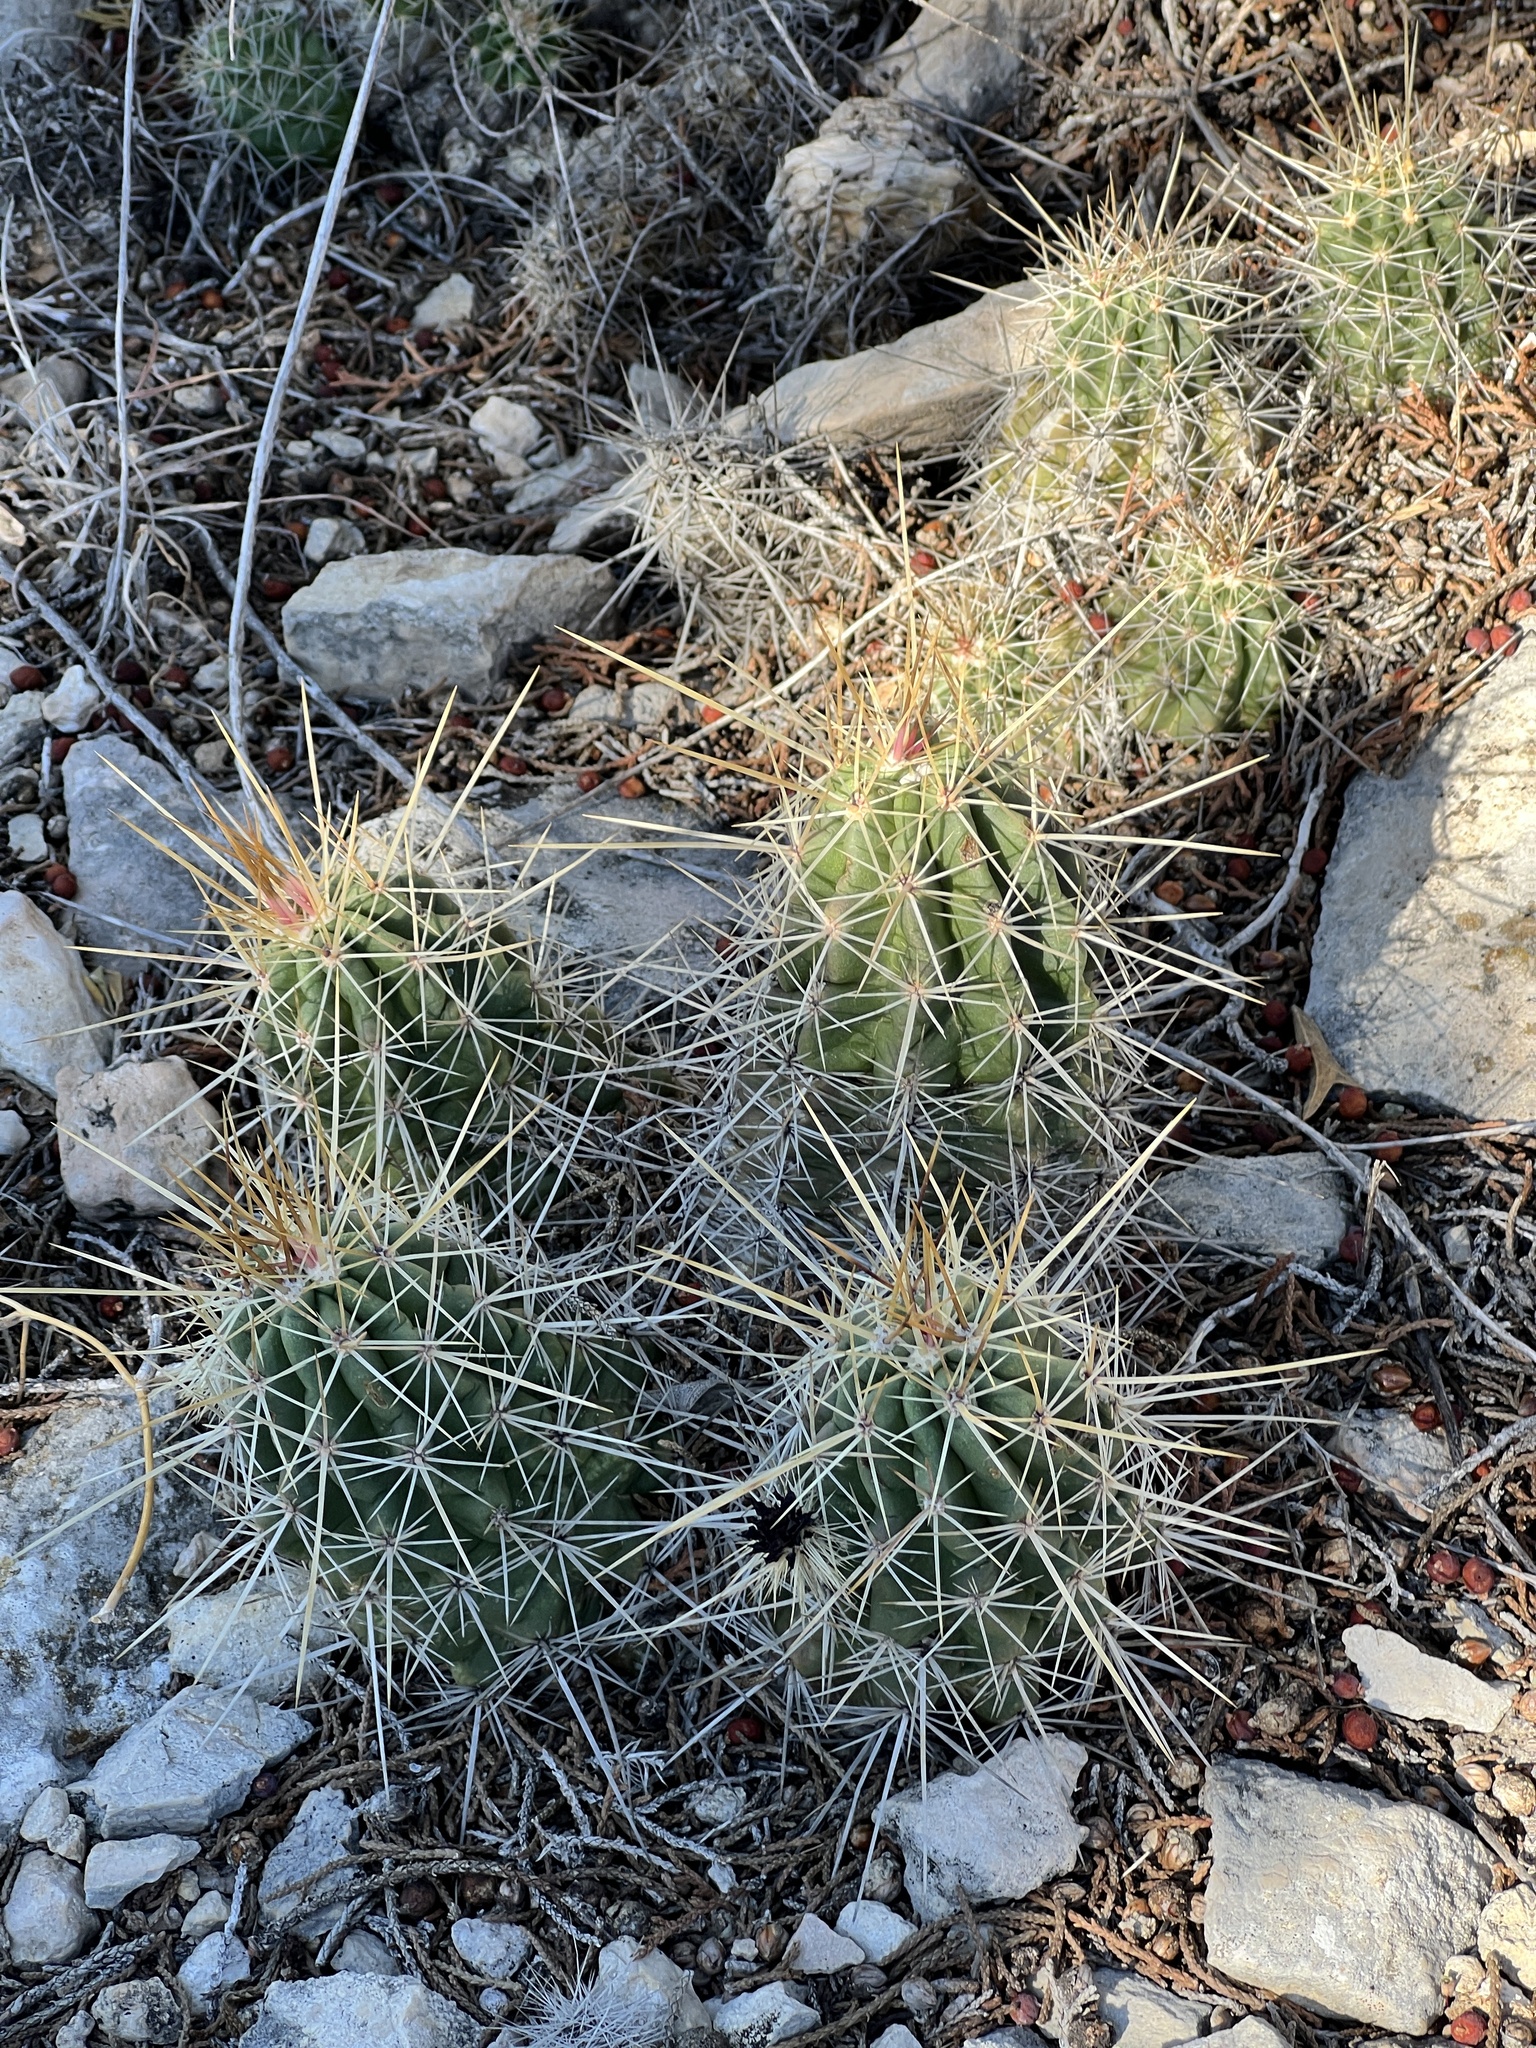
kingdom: Plantae
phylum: Tracheophyta
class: Magnoliopsida
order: Caryophyllales
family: Cactaceae
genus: Echinocereus
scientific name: Echinocereus enneacanthus
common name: Pitaya
